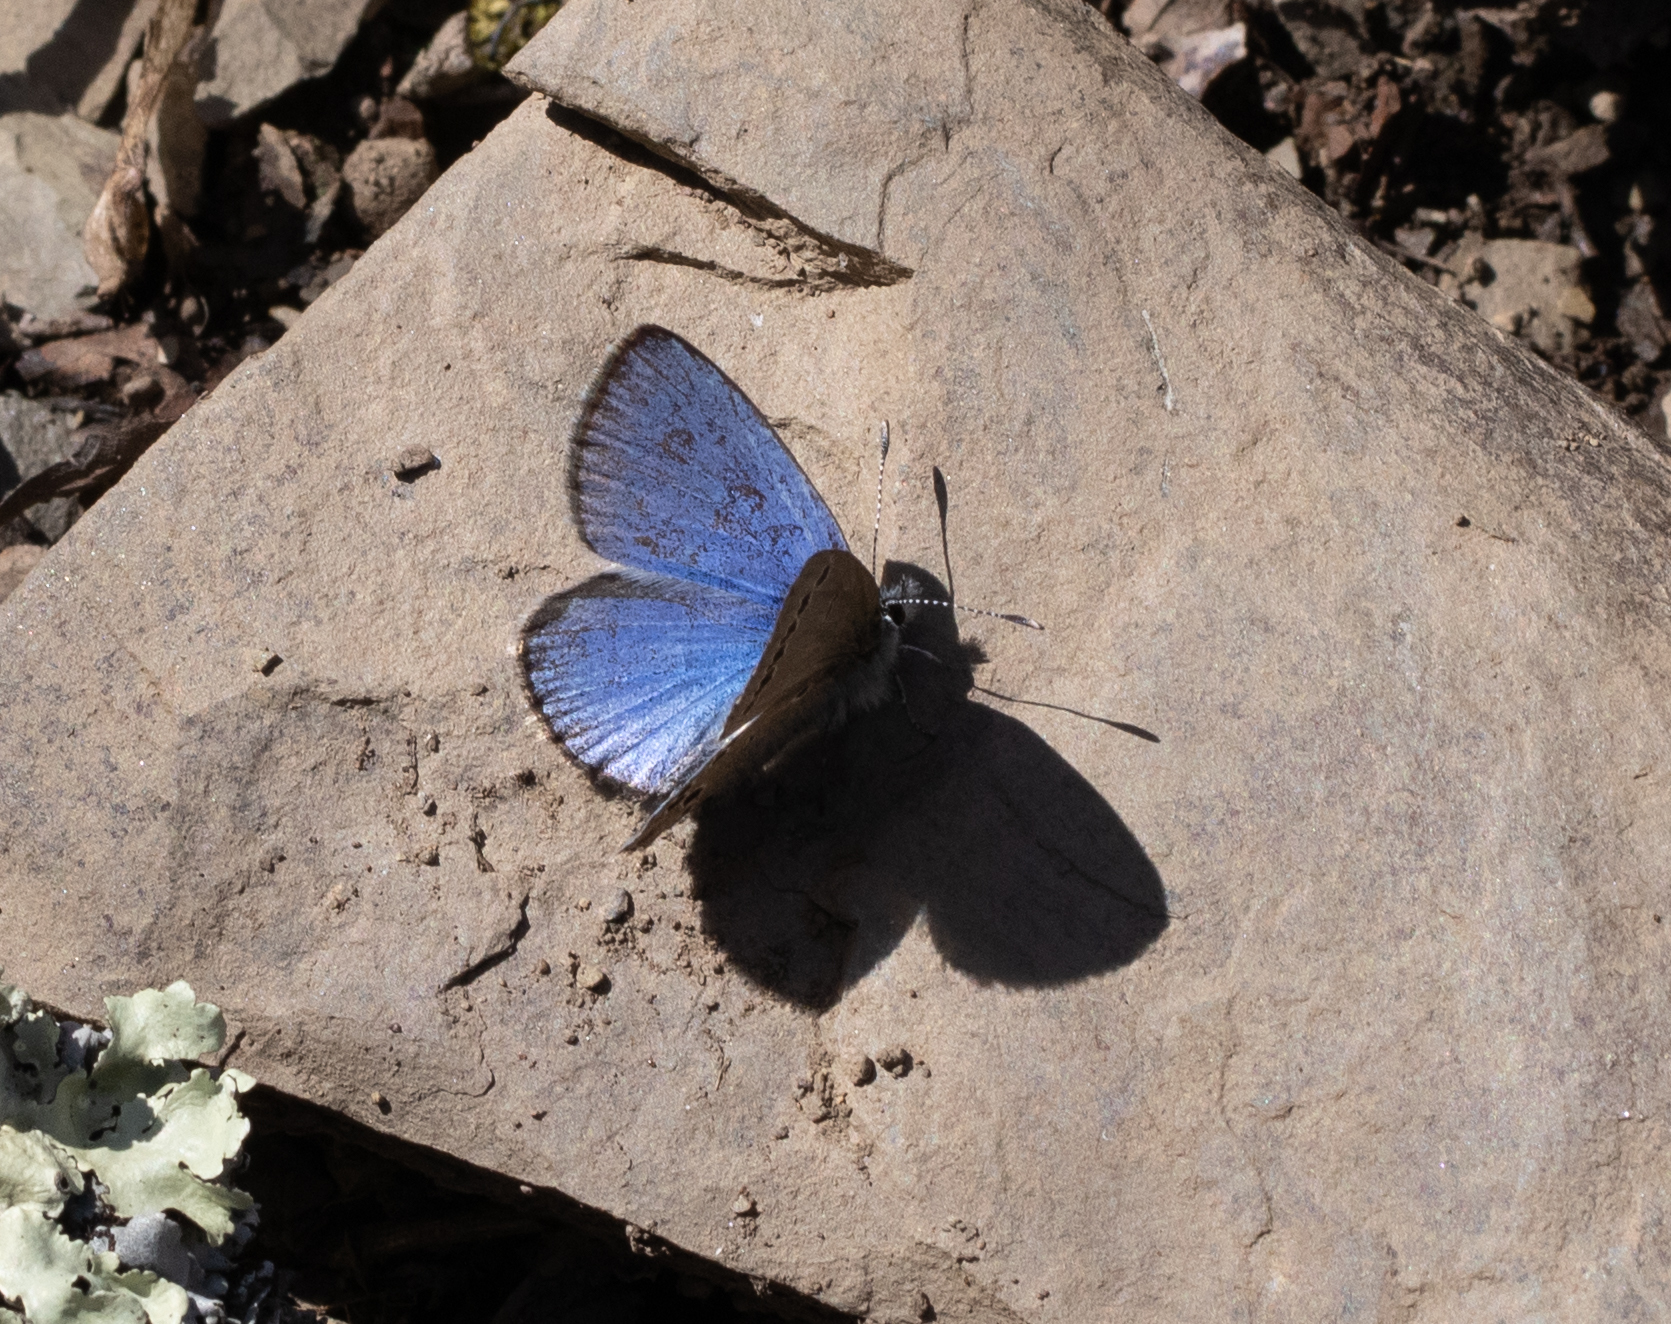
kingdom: Animalia
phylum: Arthropoda
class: Insecta
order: Lepidoptera
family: Lycaenidae
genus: Glaucopsyche
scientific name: Glaucopsyche lygdamus
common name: Silvery blue
